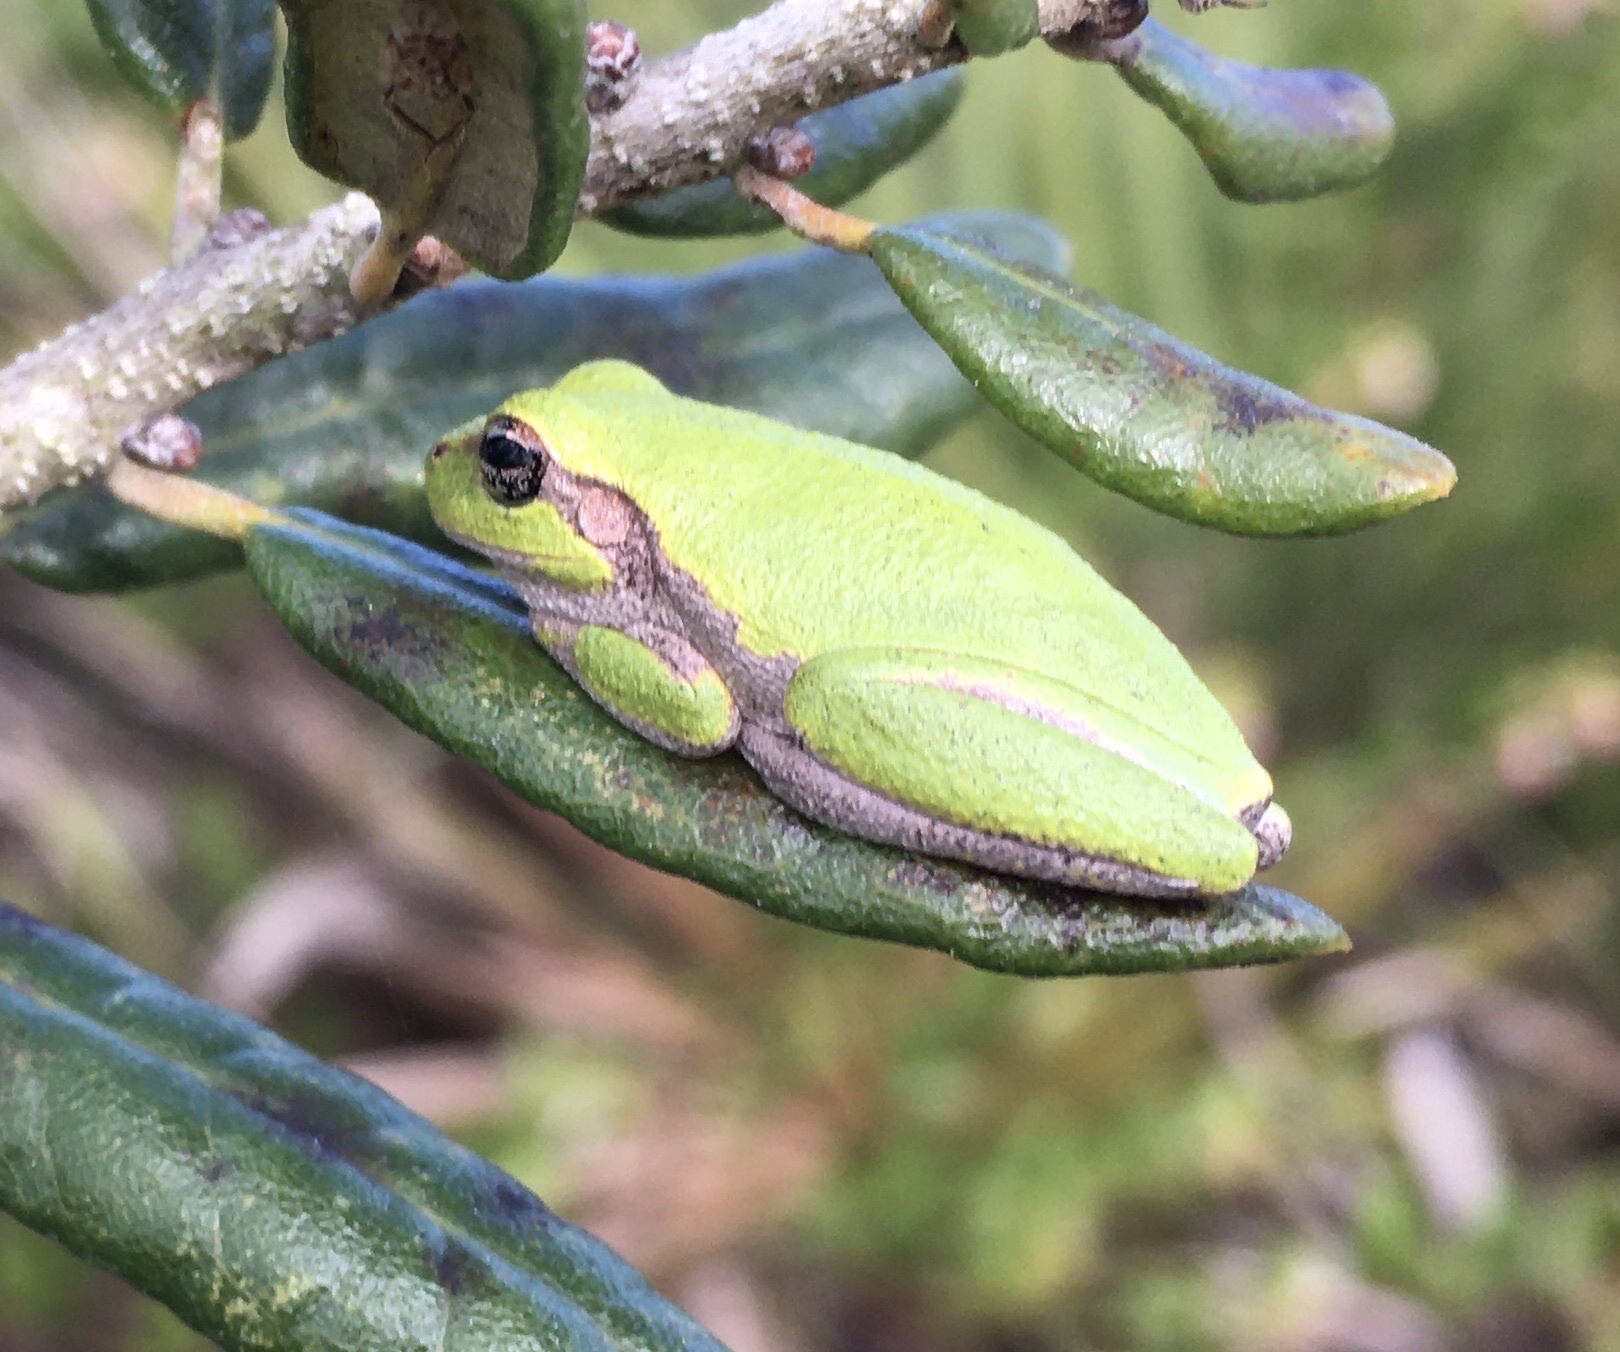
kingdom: Animalia
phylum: Chordata
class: Amphibia
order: Anura
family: Hylidae
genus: Hyla
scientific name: Hyla femoralis
